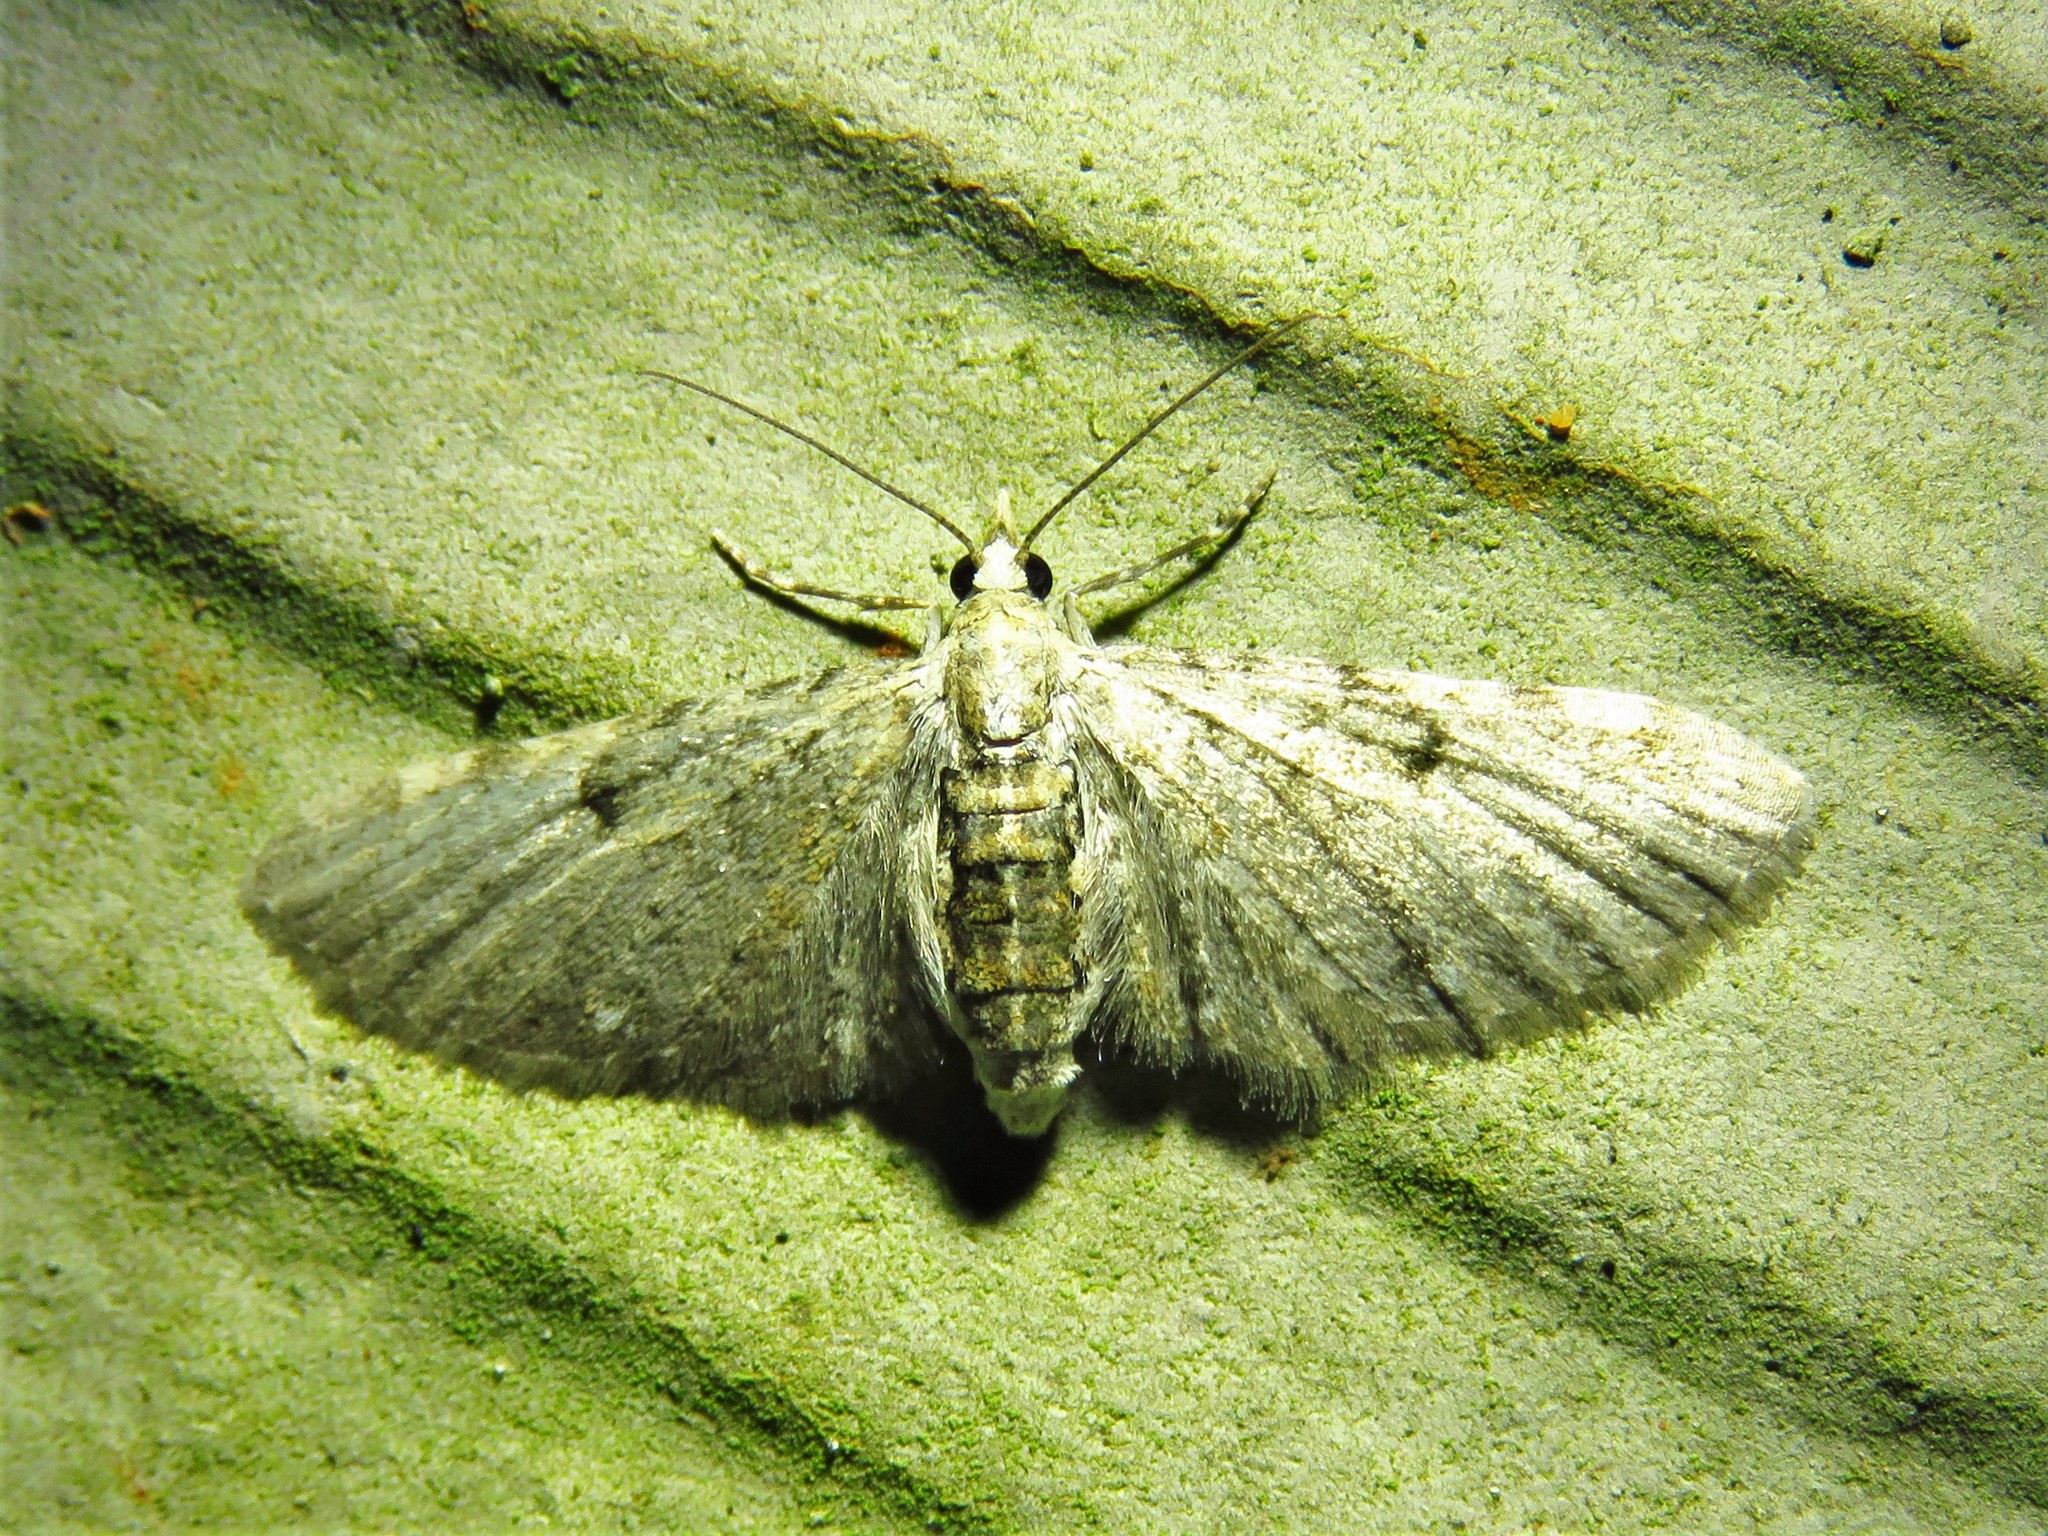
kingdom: Animalia
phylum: Arthropoda
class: Insecta
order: Lepidoptera
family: Geometridae
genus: Eupithecia
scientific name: Eupithecia miserulata
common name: Common eupithecia
